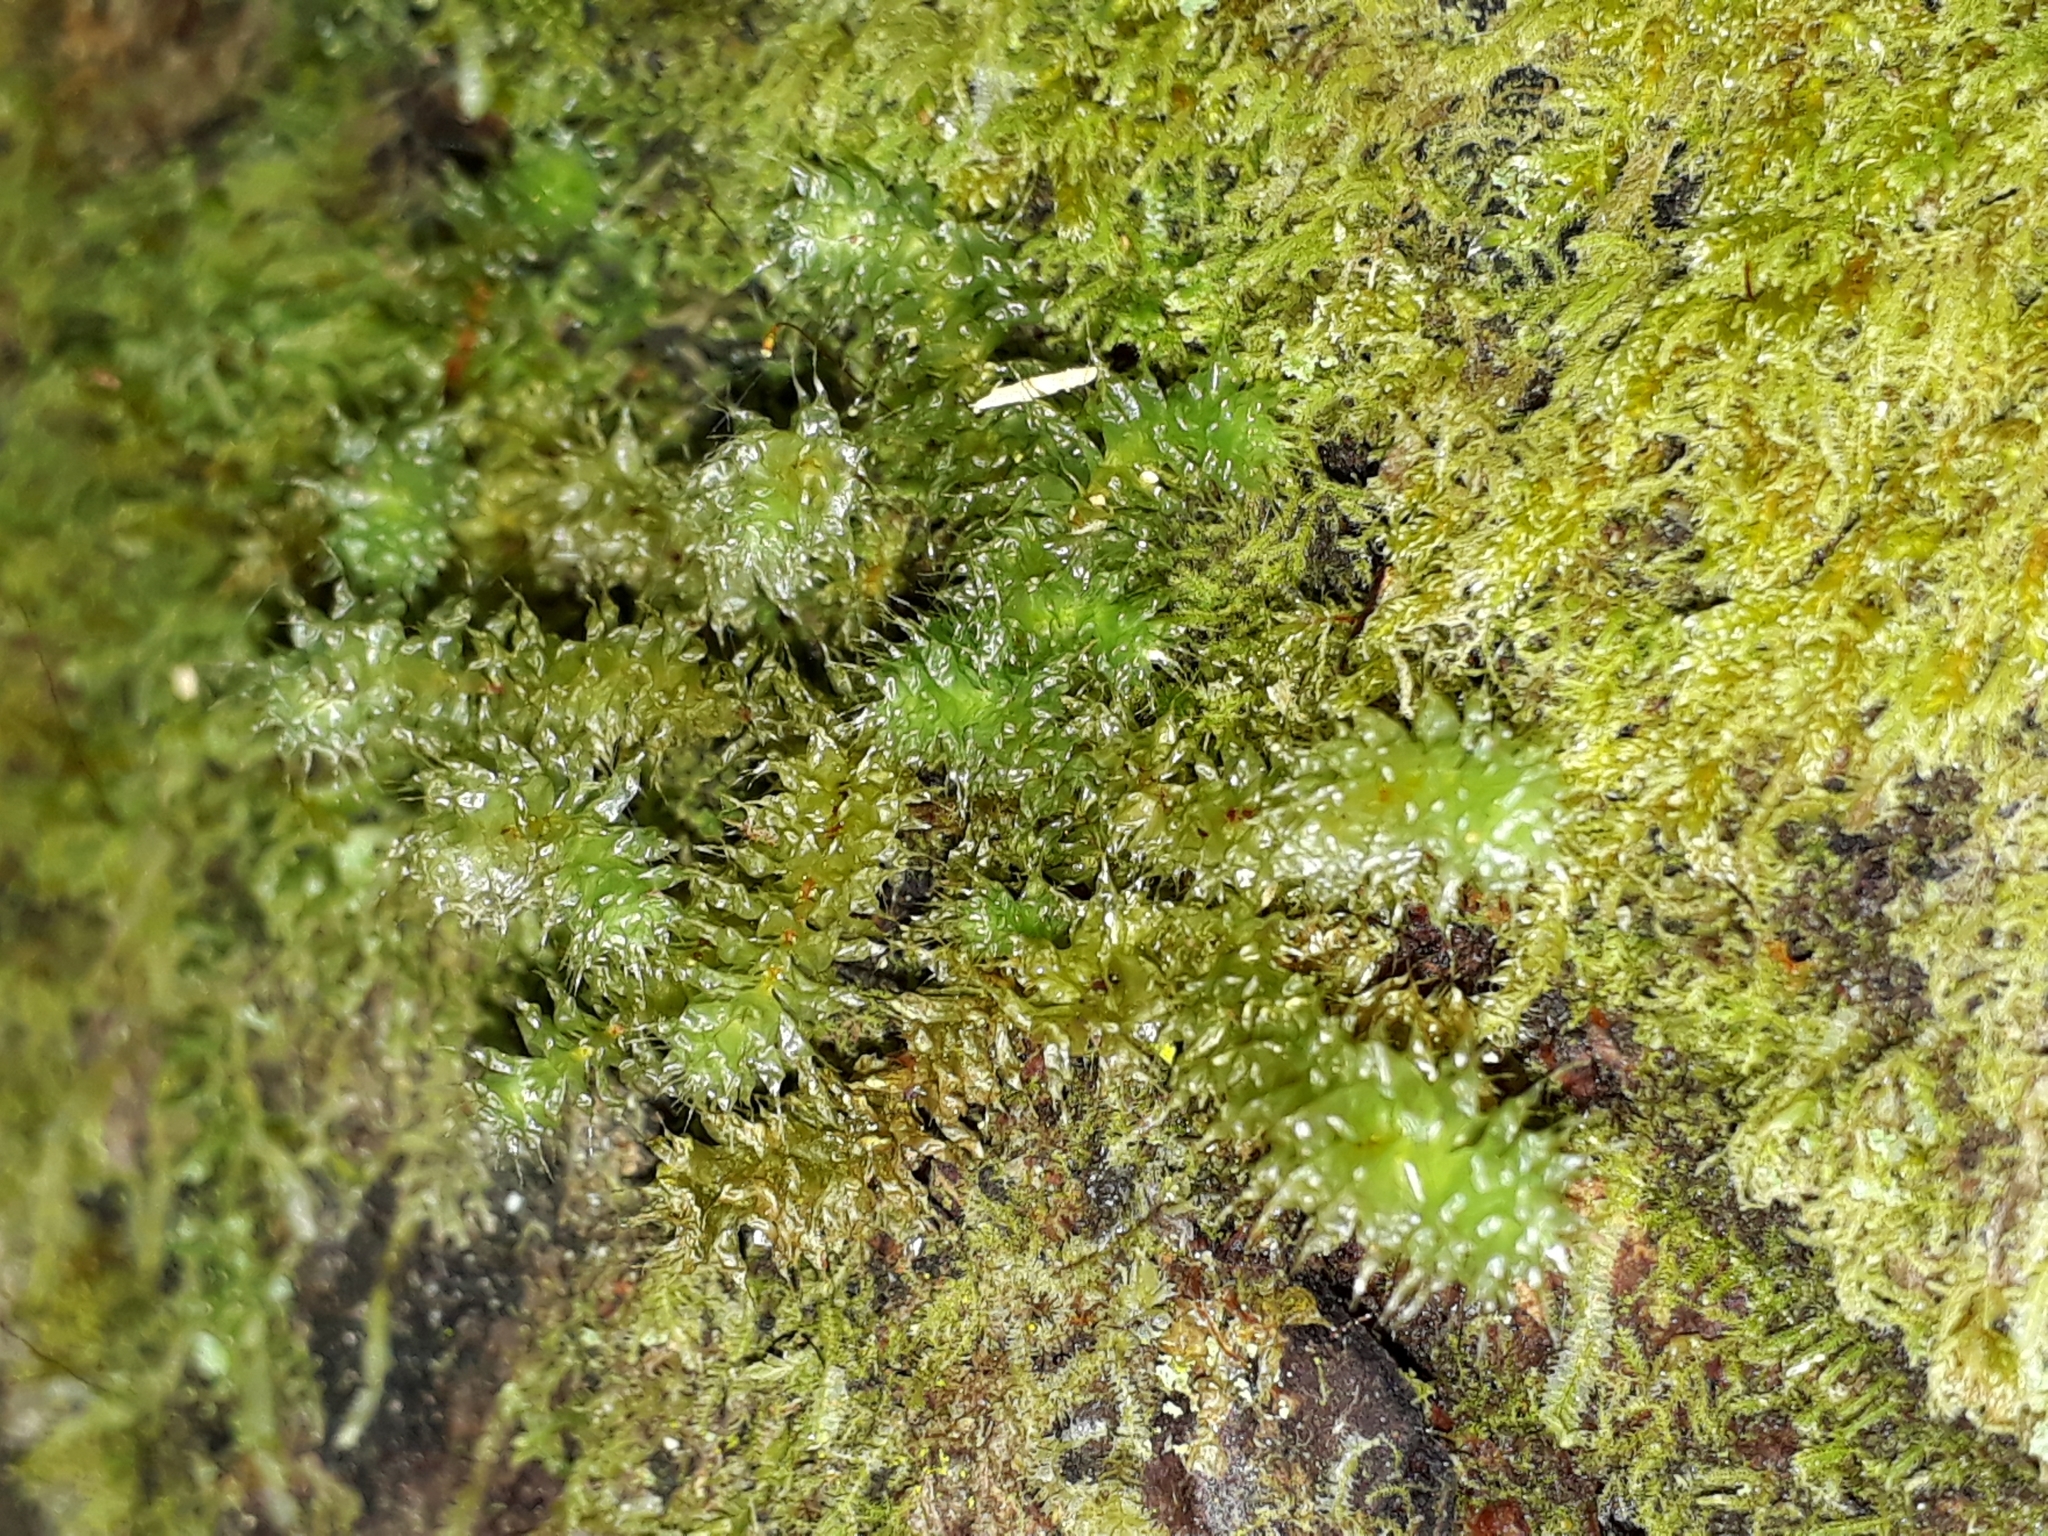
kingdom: Plantae
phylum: Bryophyta
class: Bryopsida
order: Ptychomniales
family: Ptychomniaceae
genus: Ptychomnion
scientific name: Ptychomnion aciculare
